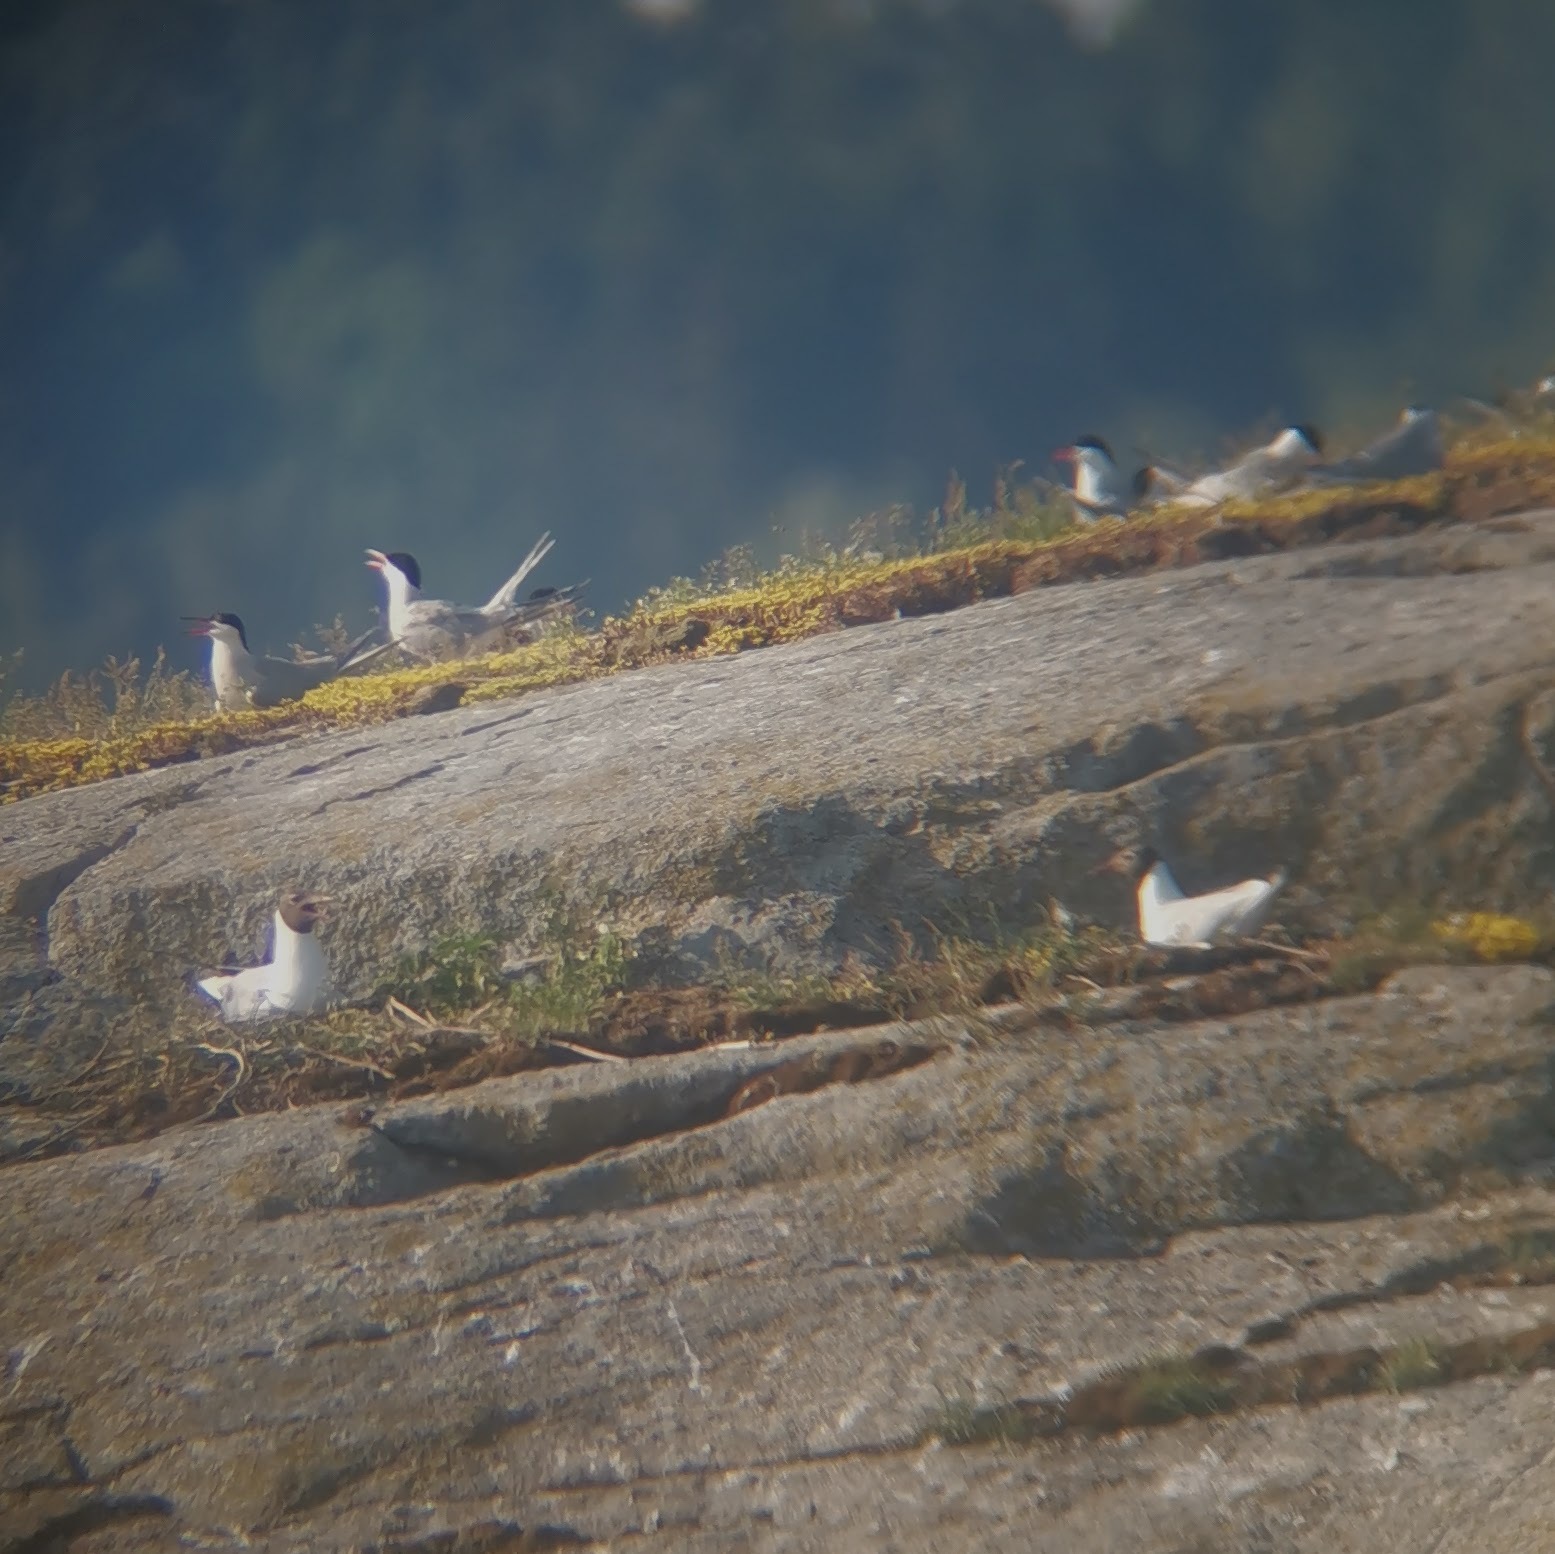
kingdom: Animalia
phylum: Chordata
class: Aves
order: Charadriiformes
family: Laridae
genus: Sterna
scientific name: Sterna hirundo
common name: Common tern
